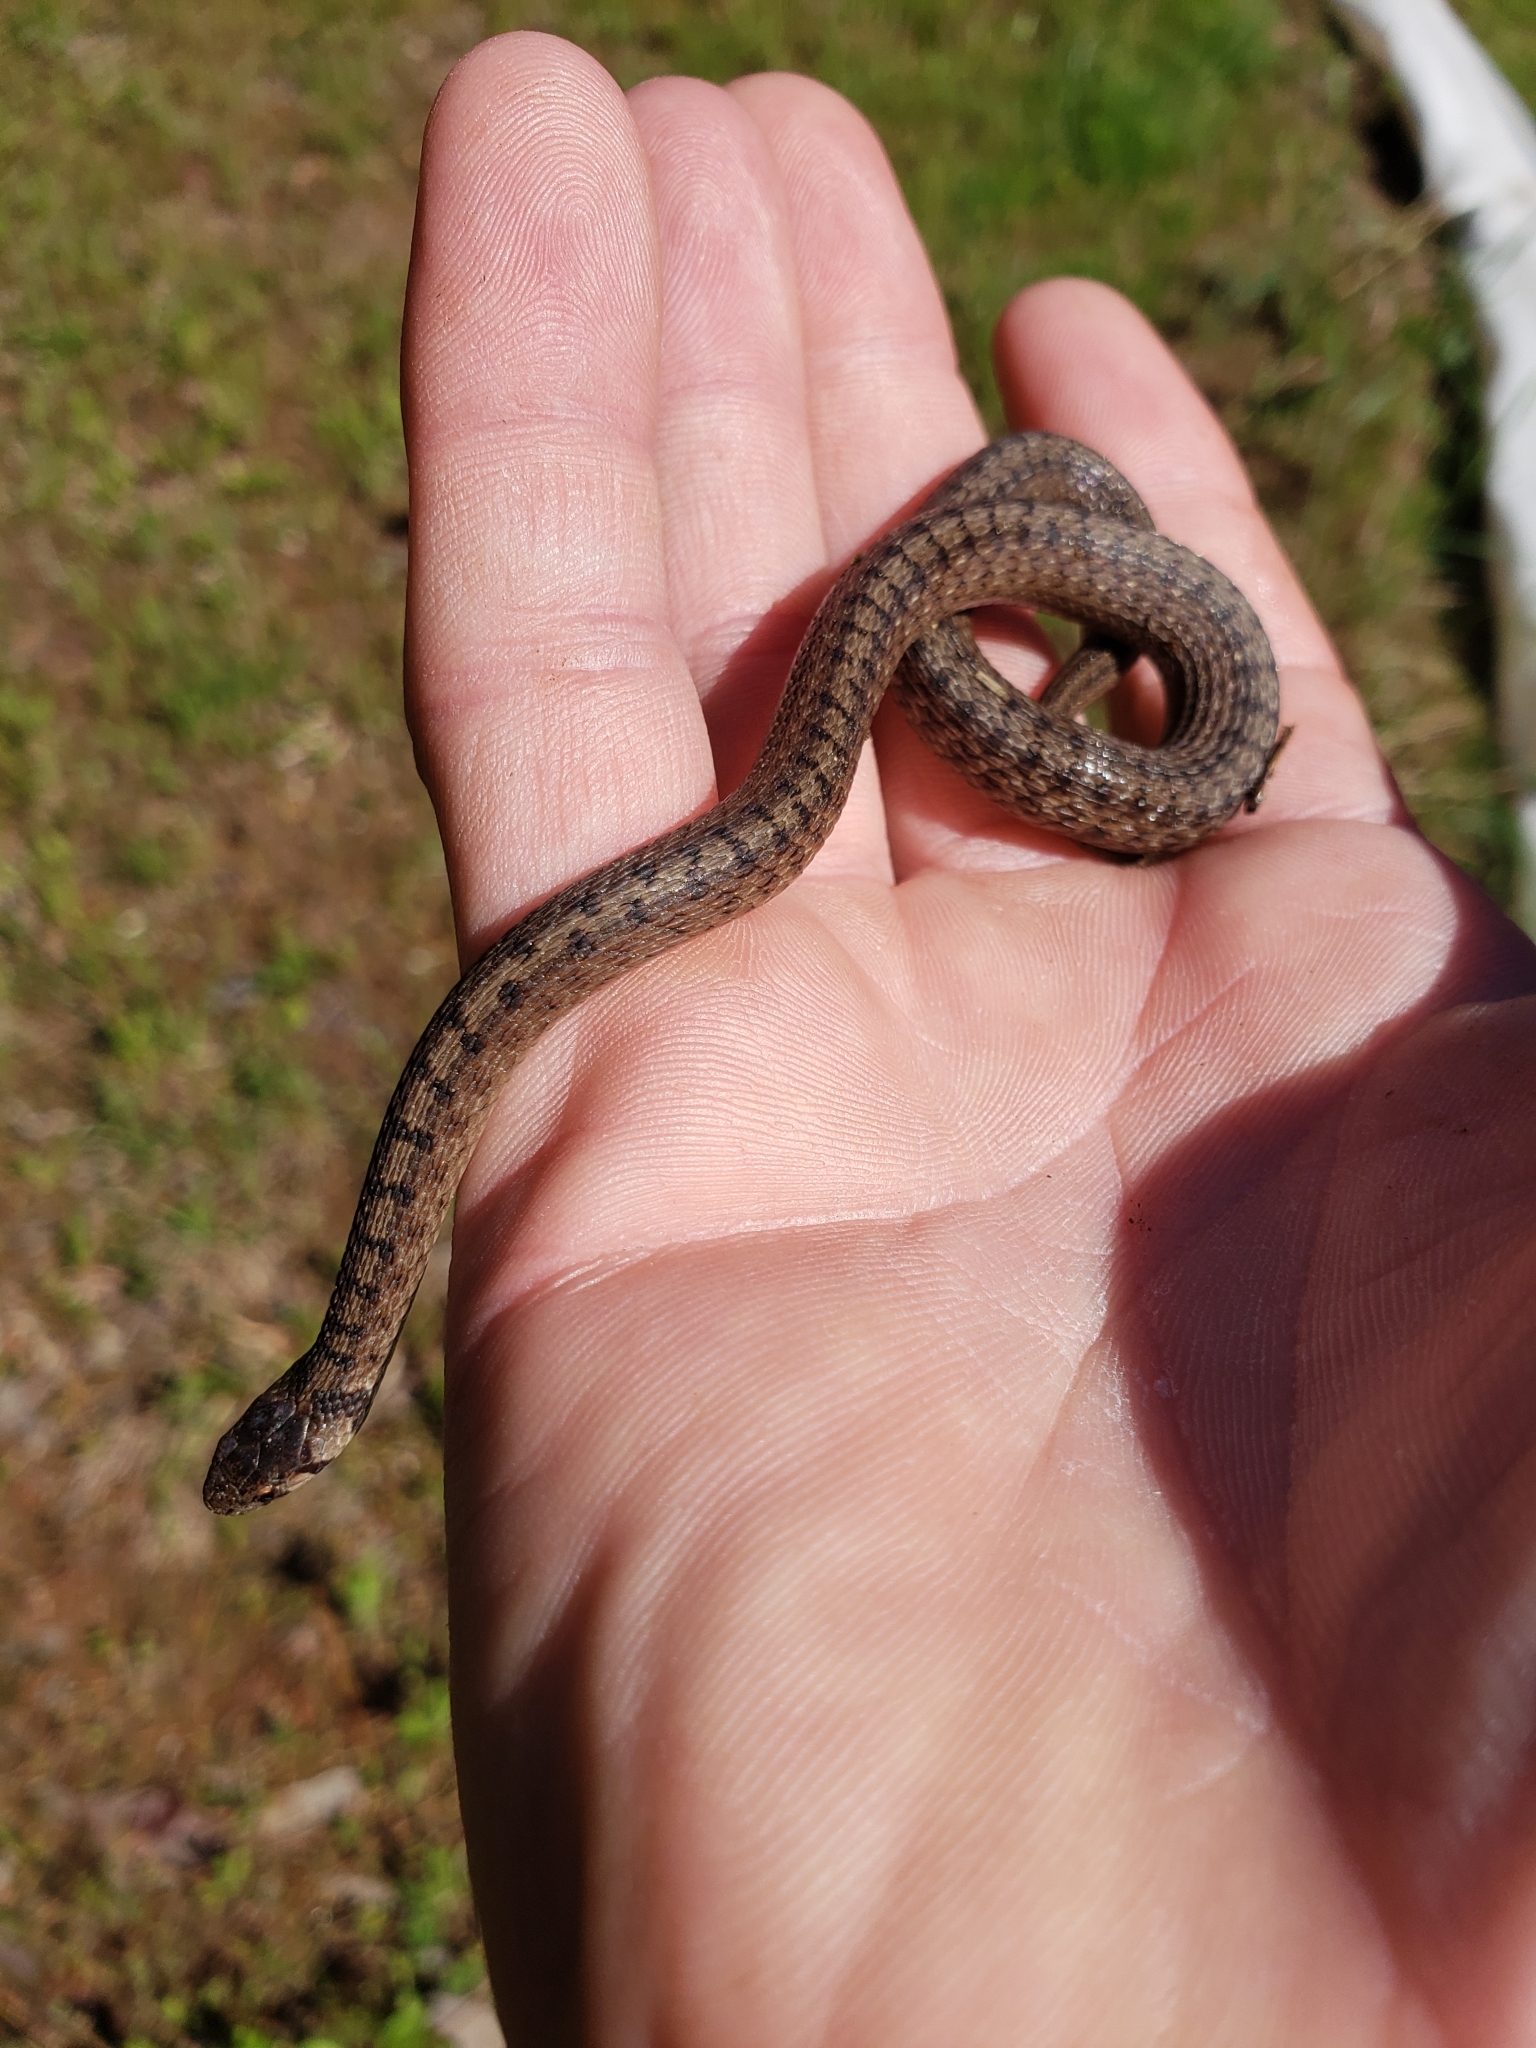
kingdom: Animalia
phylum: Chordata
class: Squamata
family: Colubridae
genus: Storeria
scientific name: Storeria dekayi
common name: (dekay’s) brown snake
